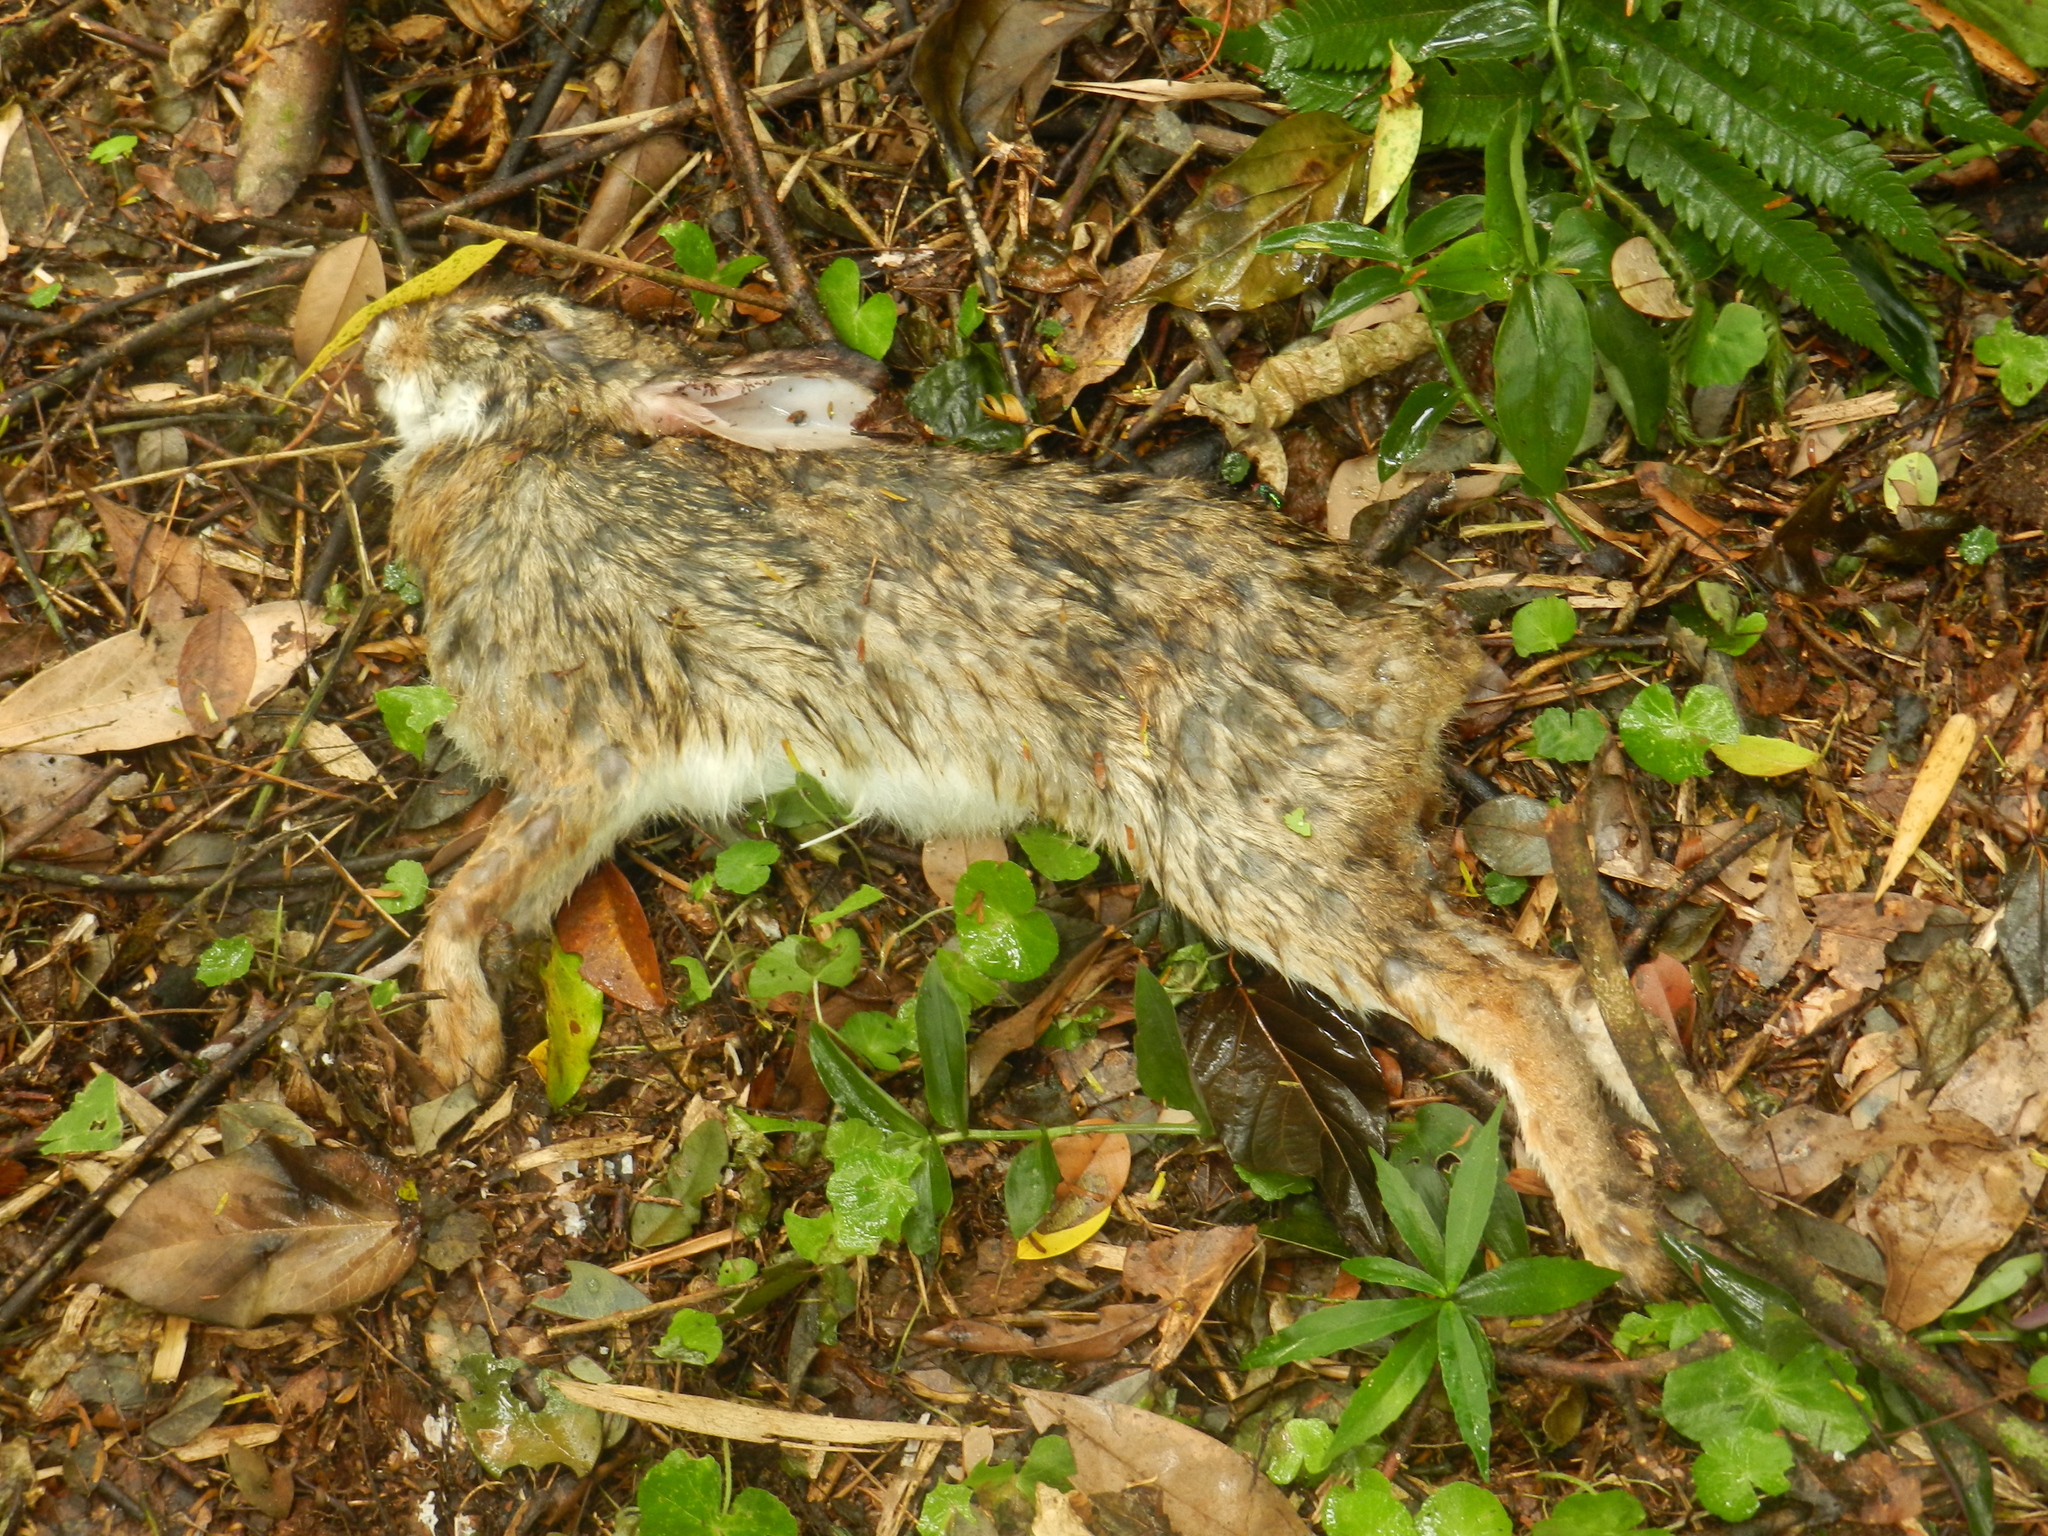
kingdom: Animalia
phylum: Chordata
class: Mammalia
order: Lagomorpha
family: Leporidae
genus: Sylvilagus
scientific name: Sylvilagus brasiliensis
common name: Tapeti
